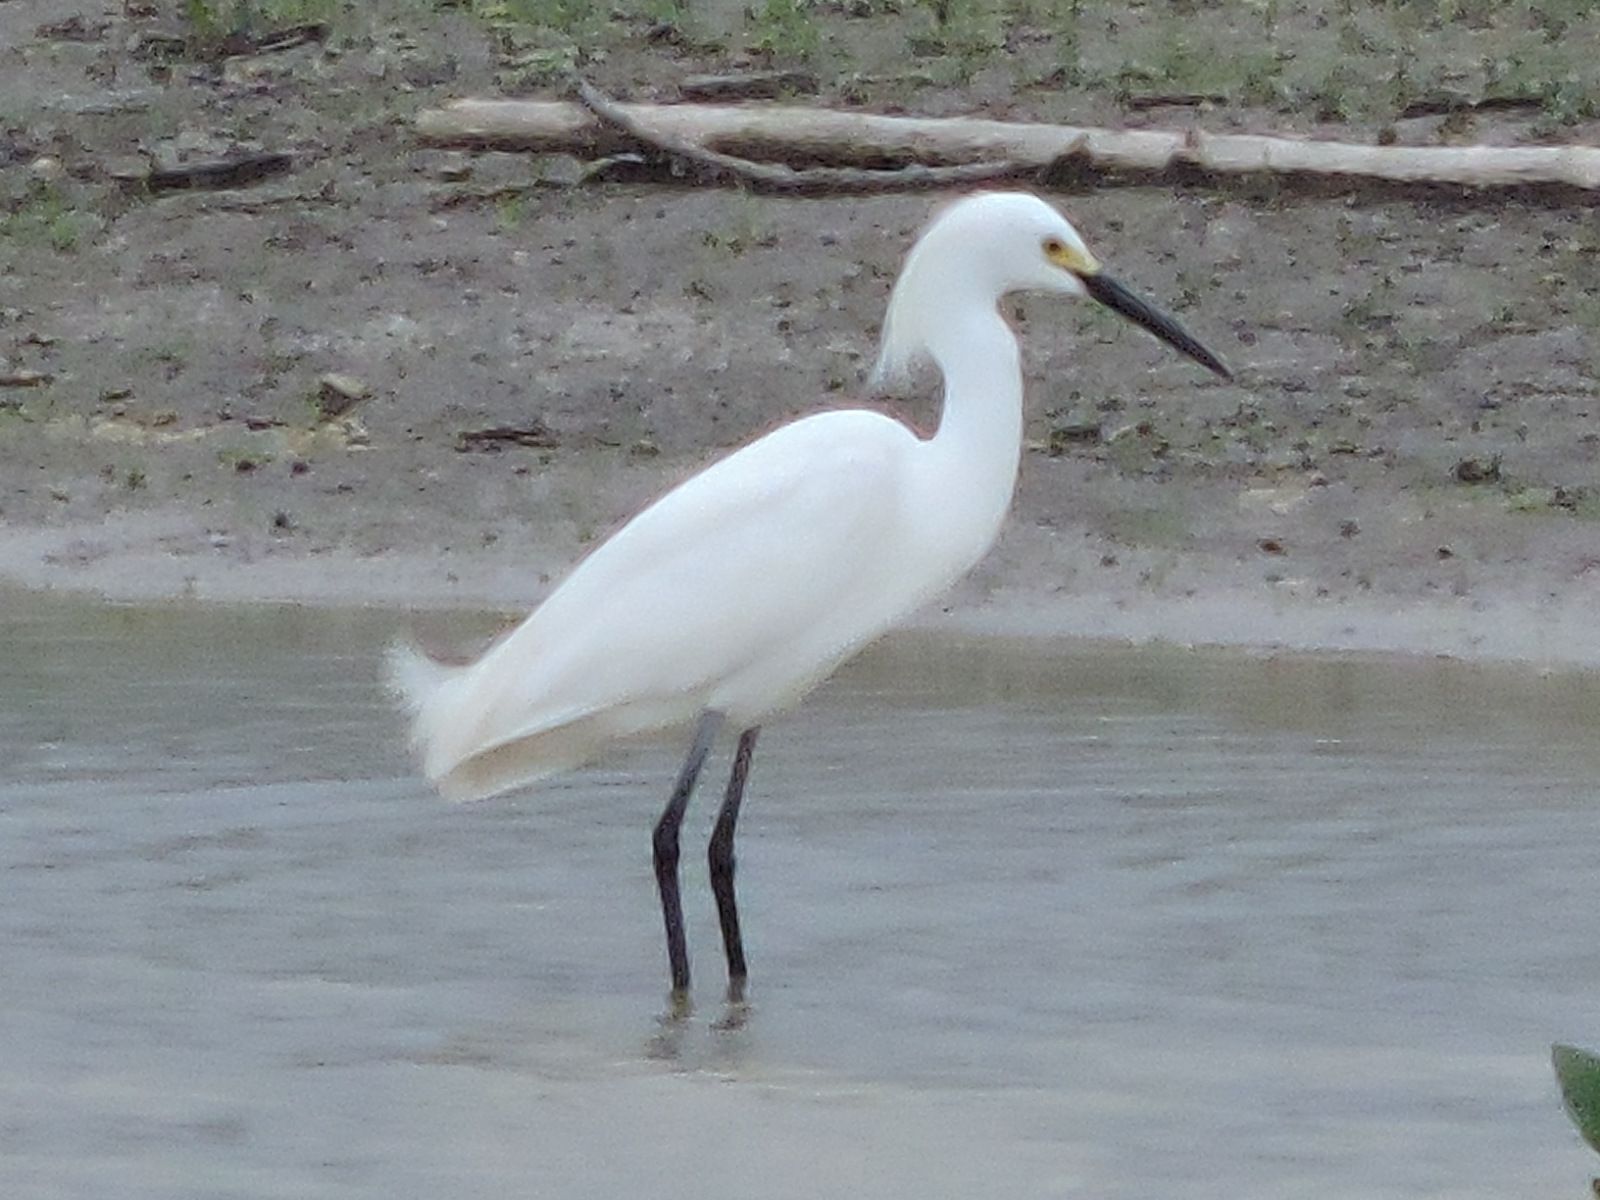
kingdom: Animalia
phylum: Chordata
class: Aves
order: Pelecaniformes
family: Ardeidae
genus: Egretta
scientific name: Egretta thula
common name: Snowy egret
